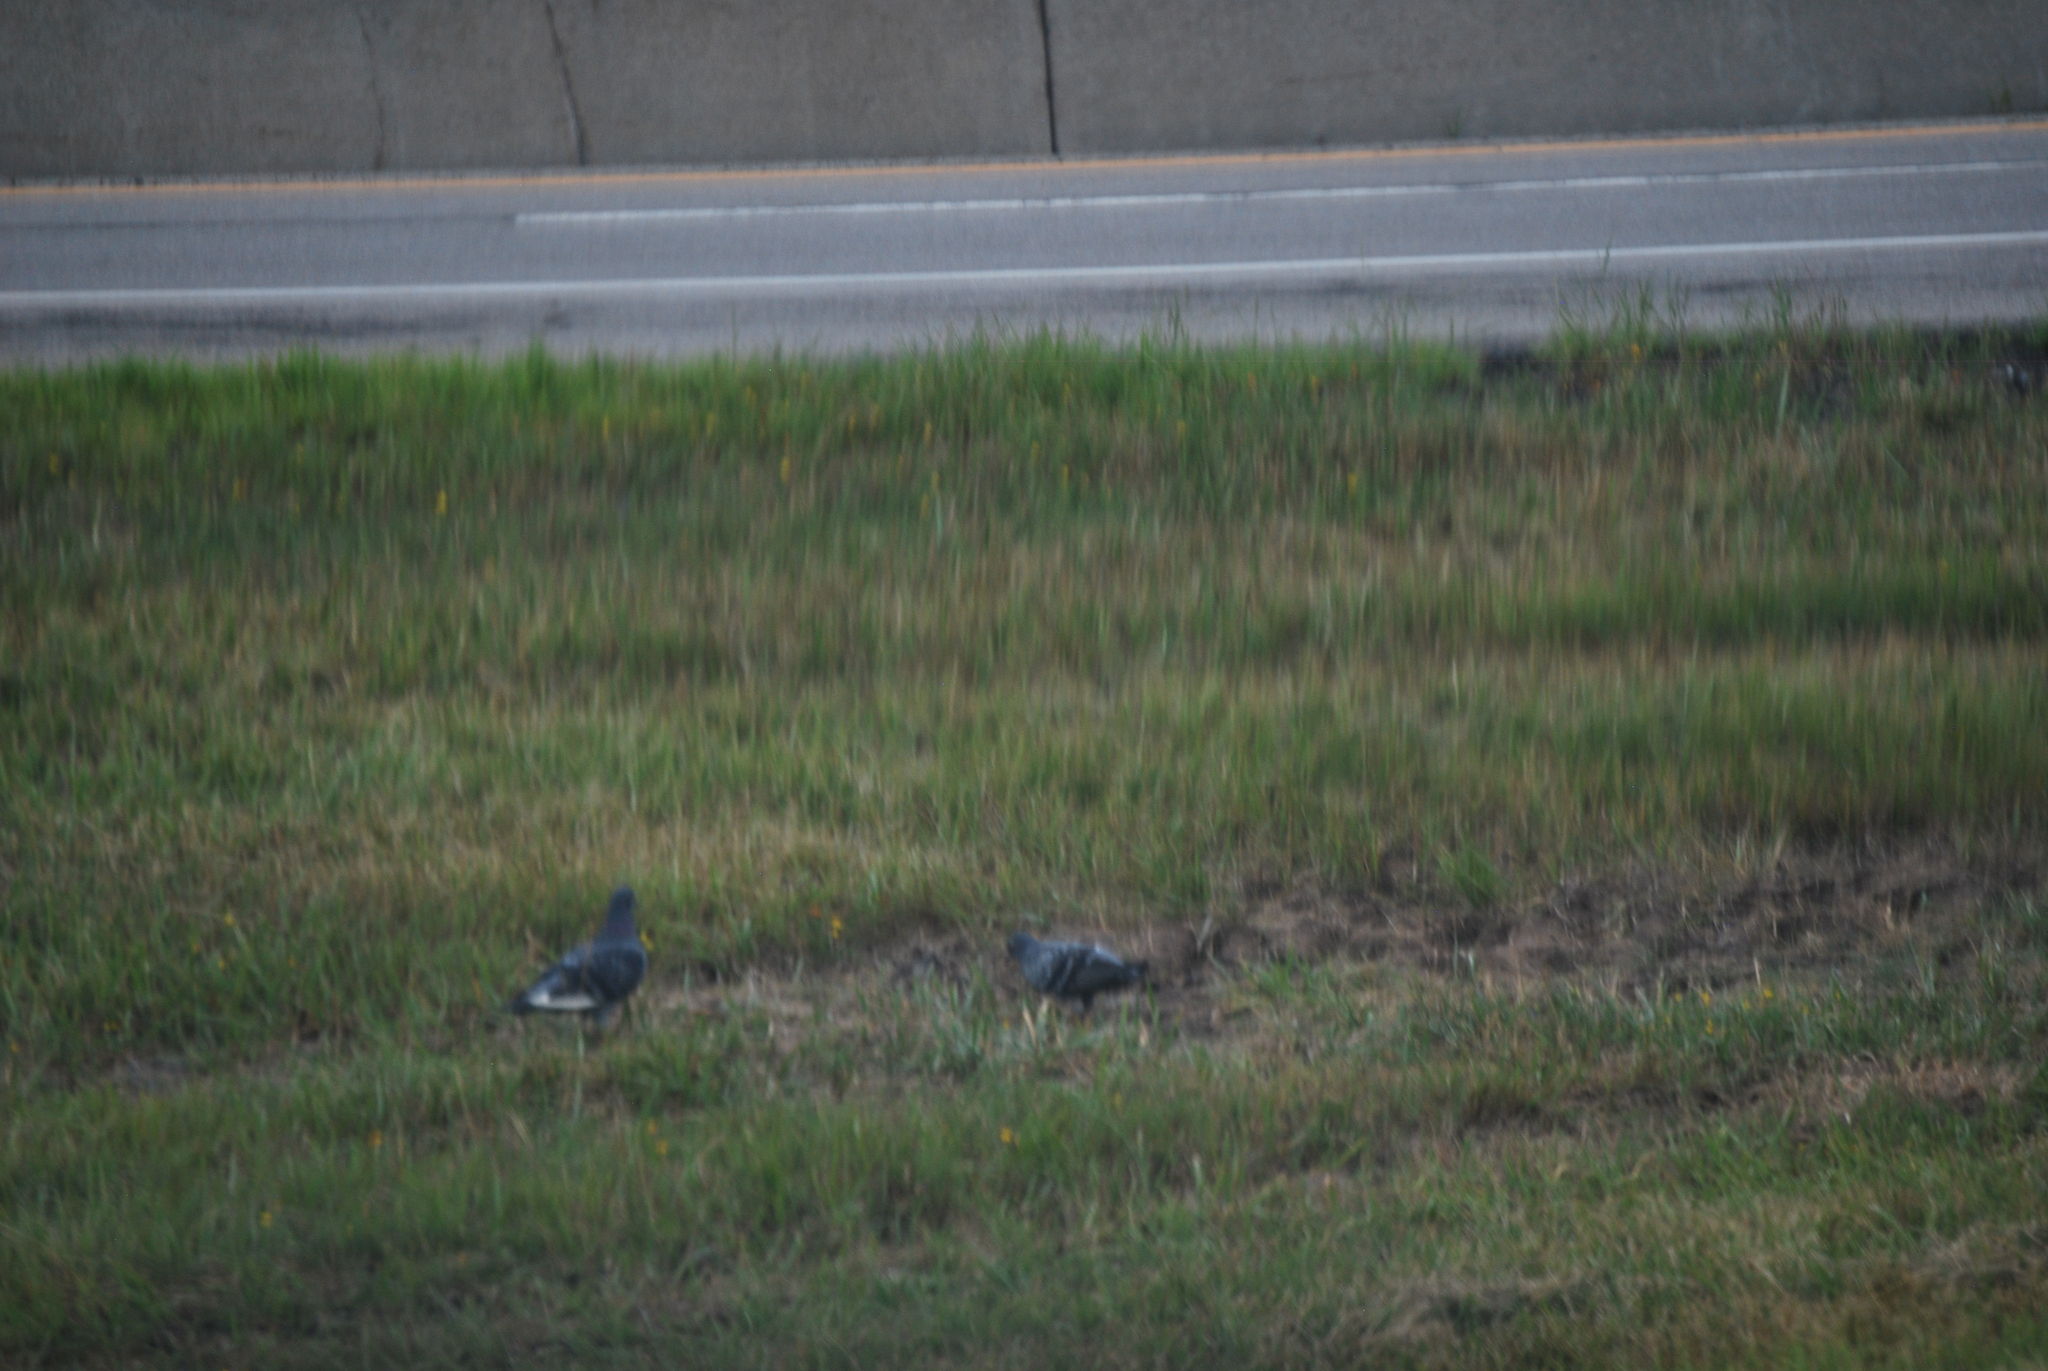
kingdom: Animalia
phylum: Chordata
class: Aves
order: Columbiformes
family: Columbidae
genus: Columba
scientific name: Columba livia
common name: Rock pigeon
